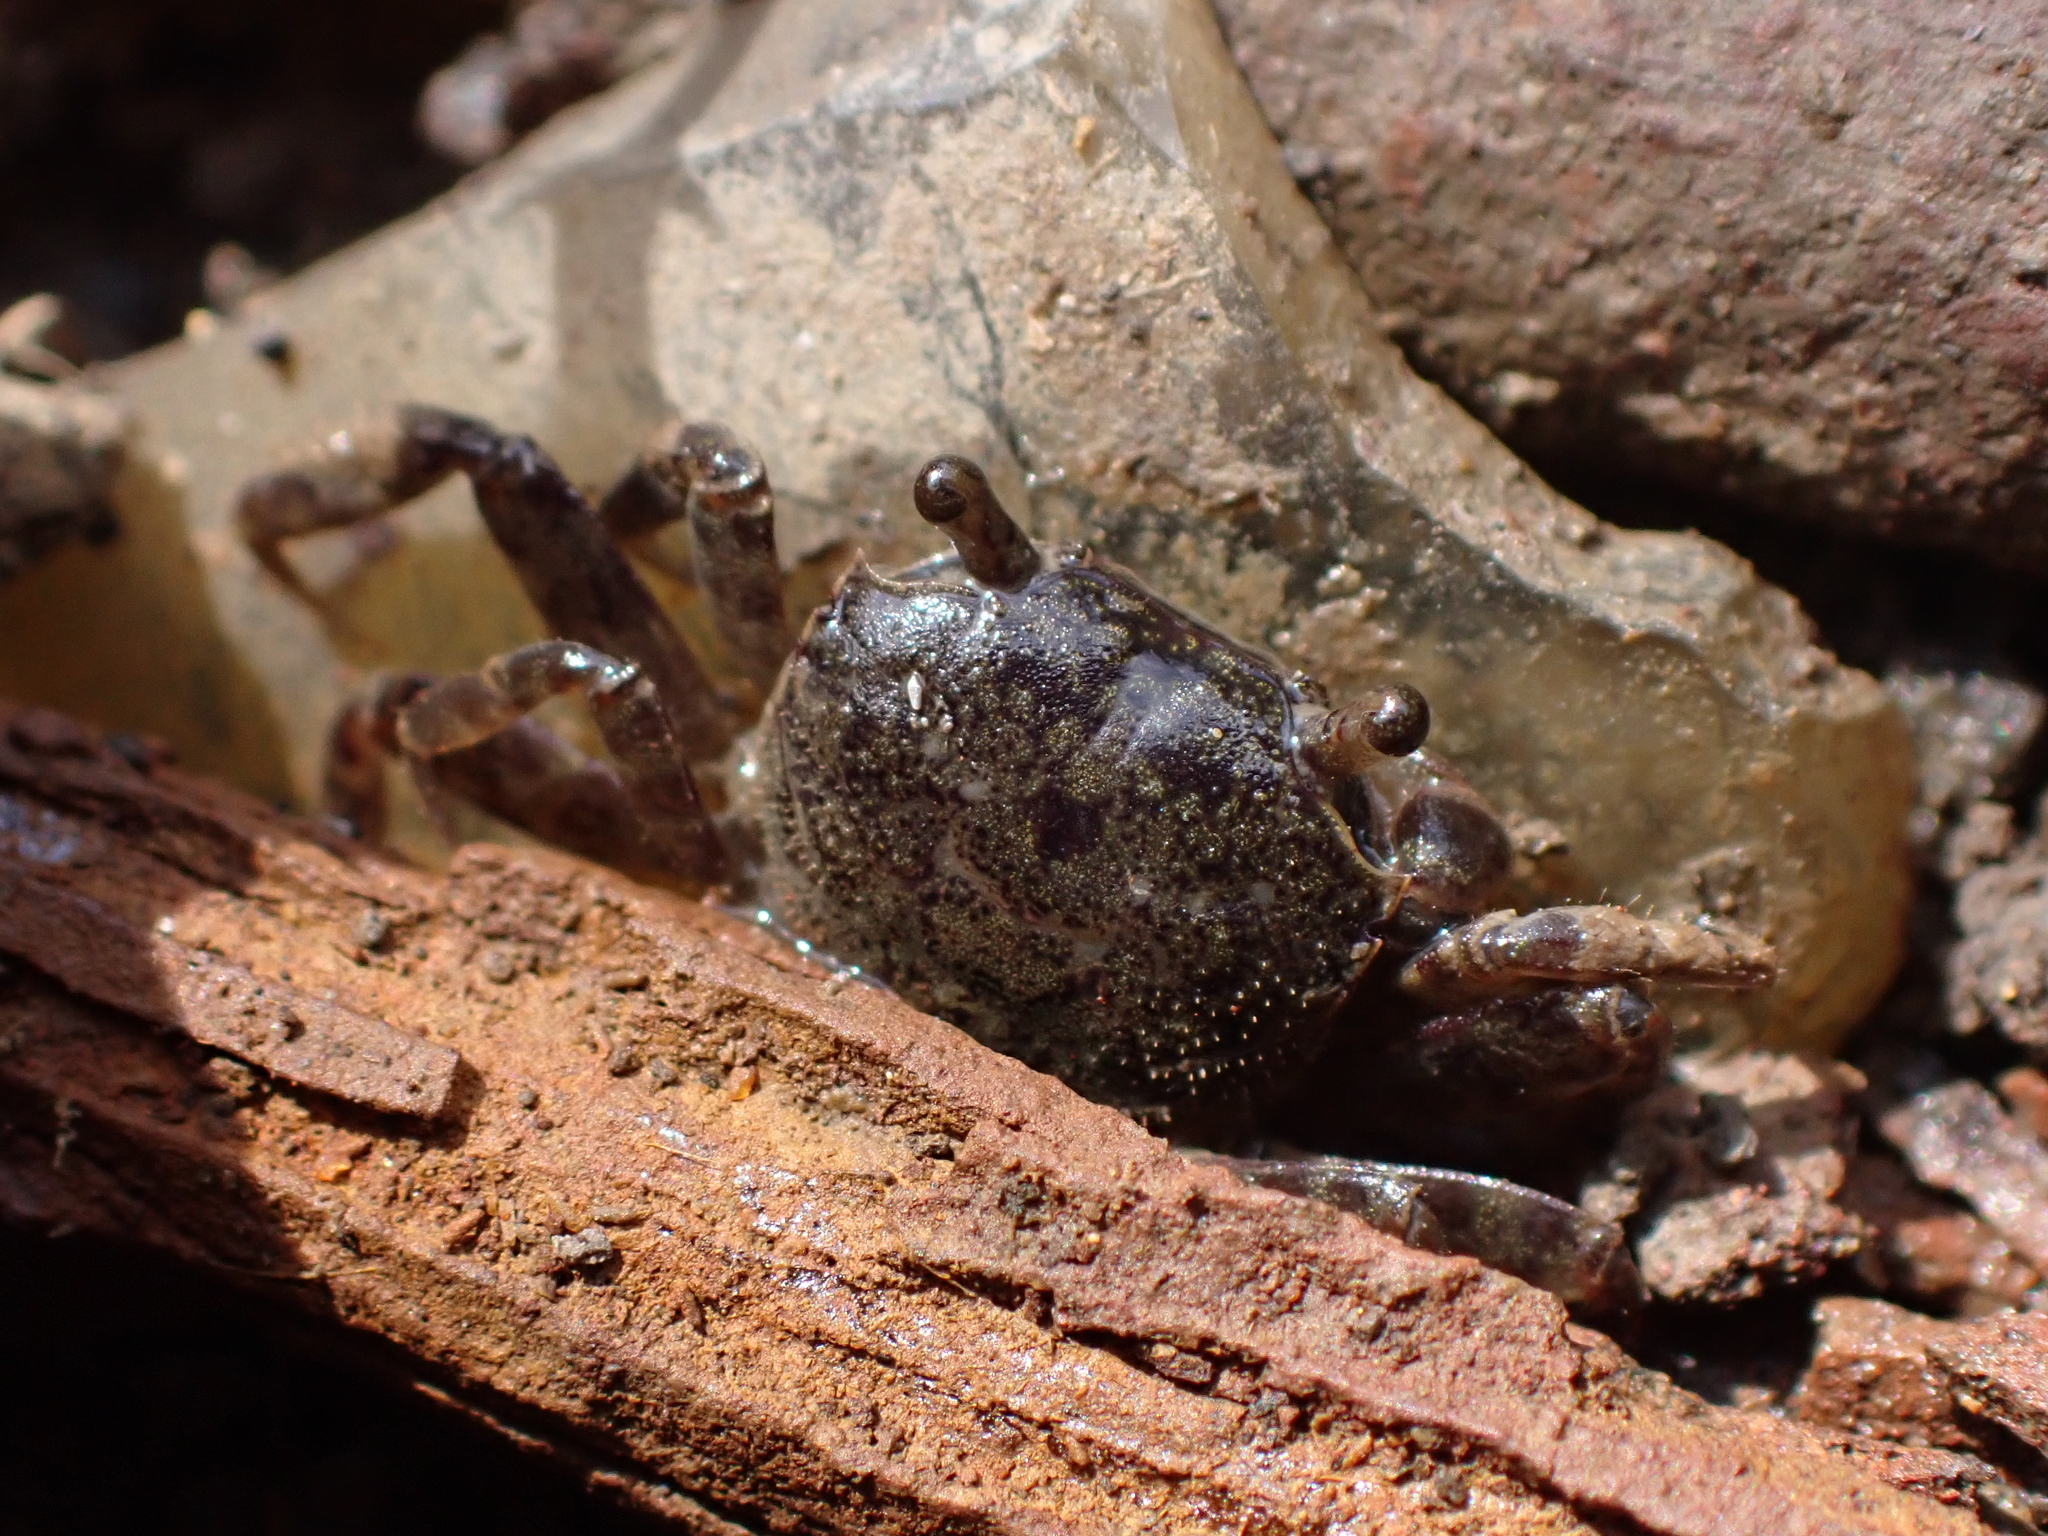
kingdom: Animalia
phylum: Arthropoda
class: Malacostraca
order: Decapoda
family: Varunidae
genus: Austrohelice
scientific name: Austrohelice crassa
